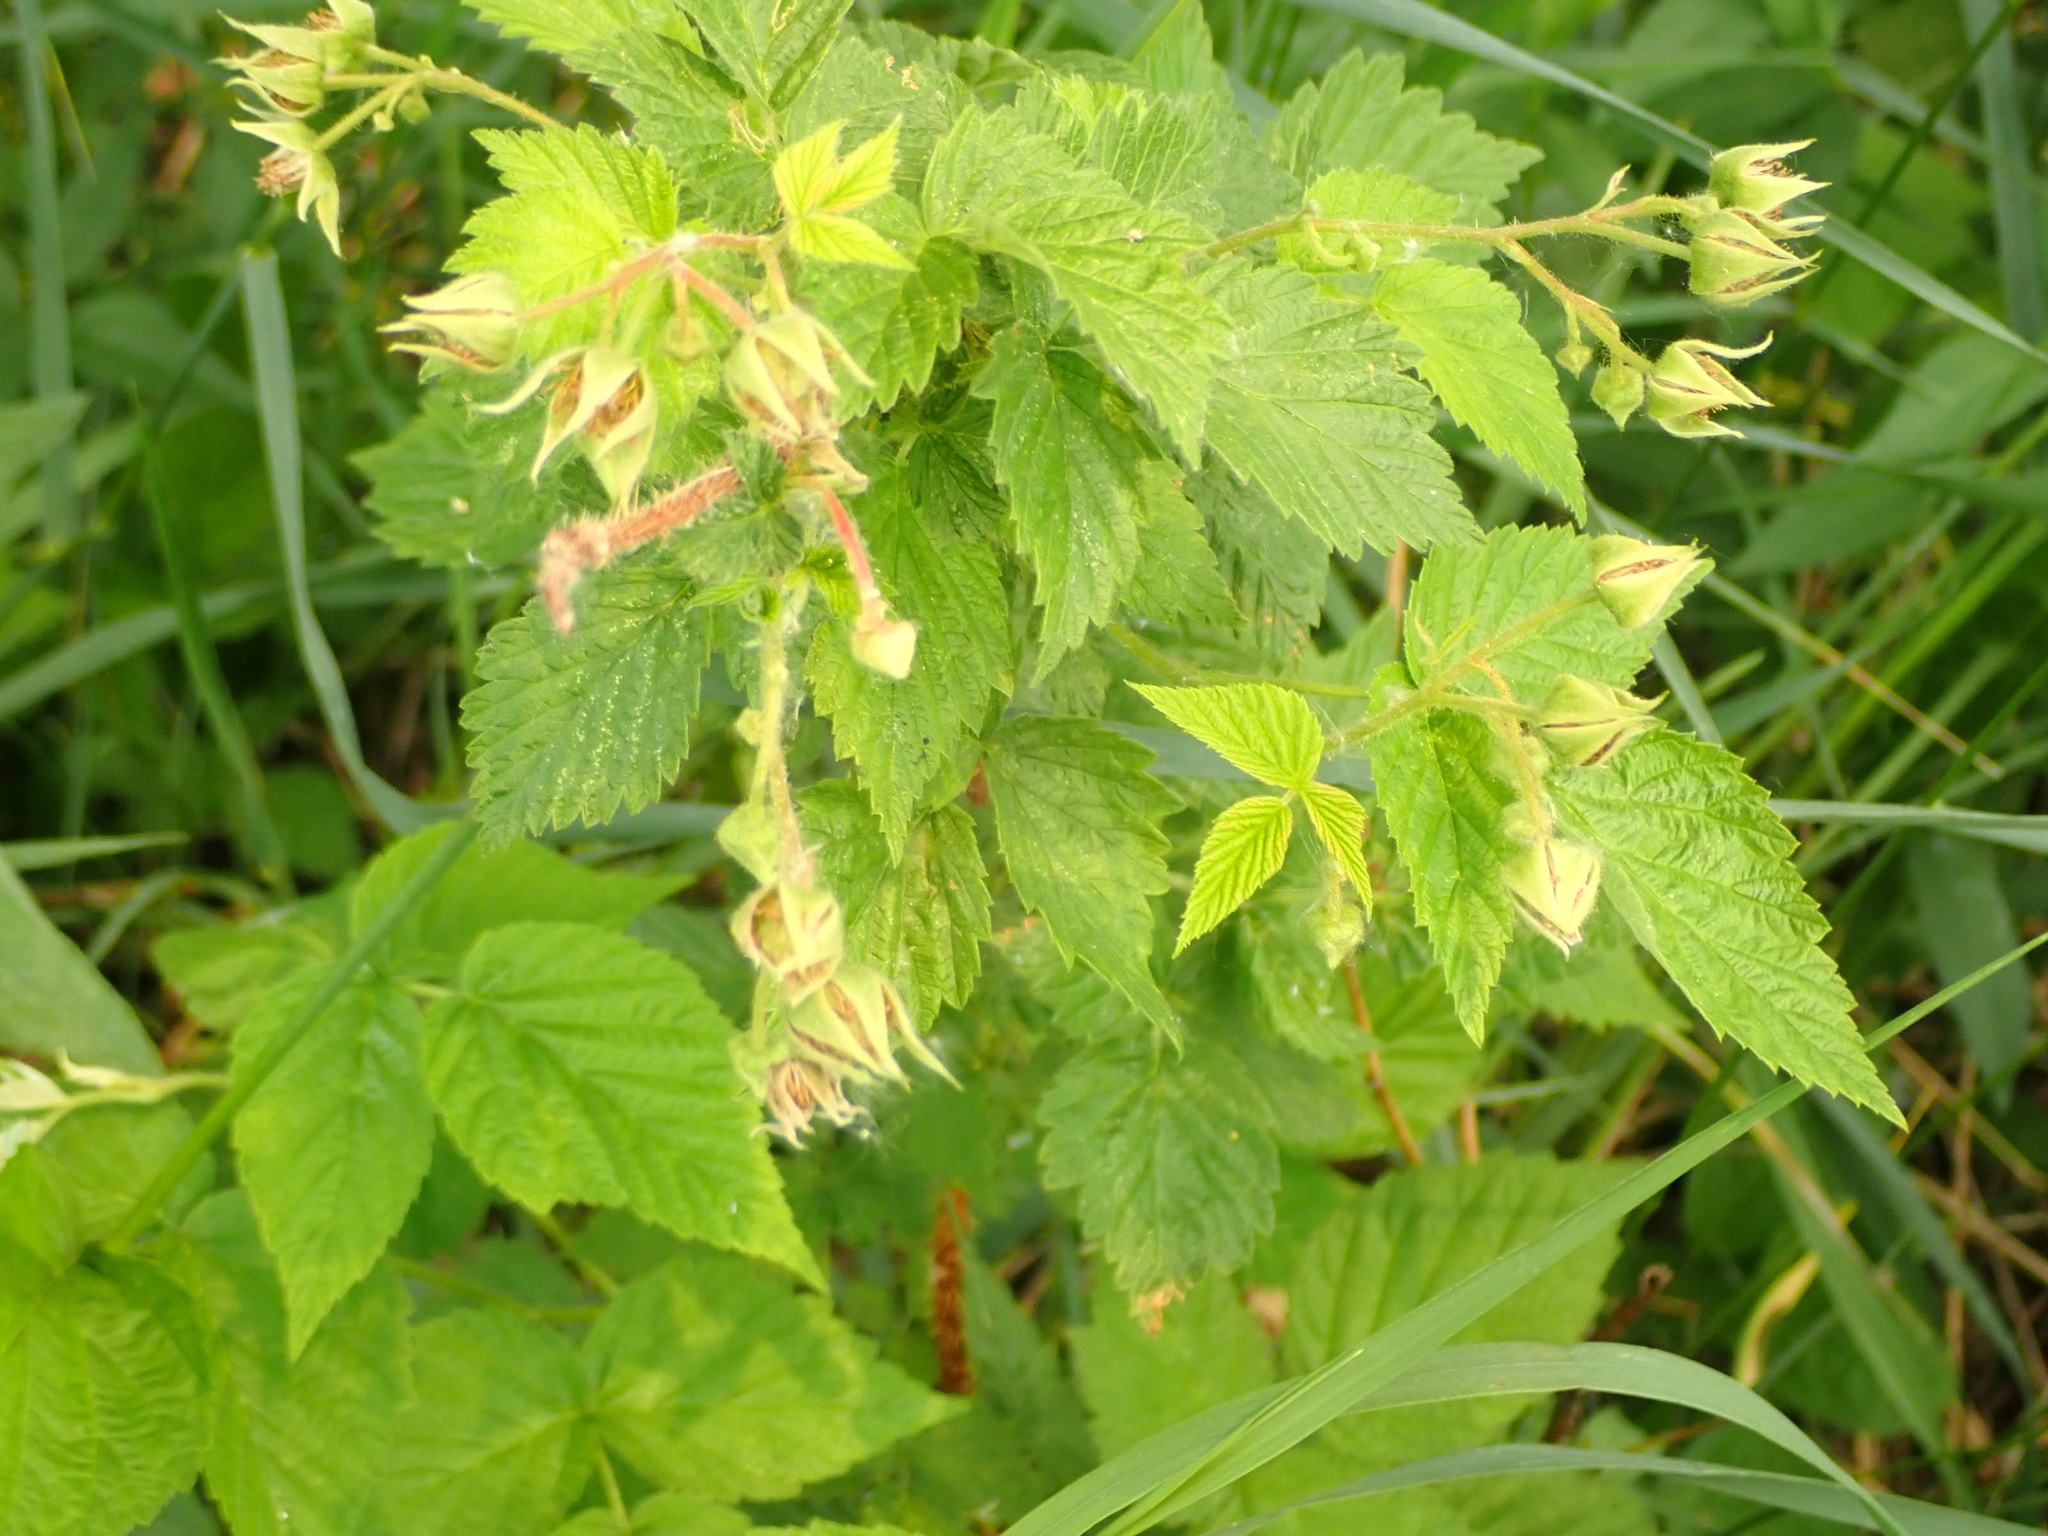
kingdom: Plantae
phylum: Tracheophyta
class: Magnoliopsida
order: Rosales
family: Rosaceae
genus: Rubus
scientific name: Rubus idaeus
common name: Raspberry
